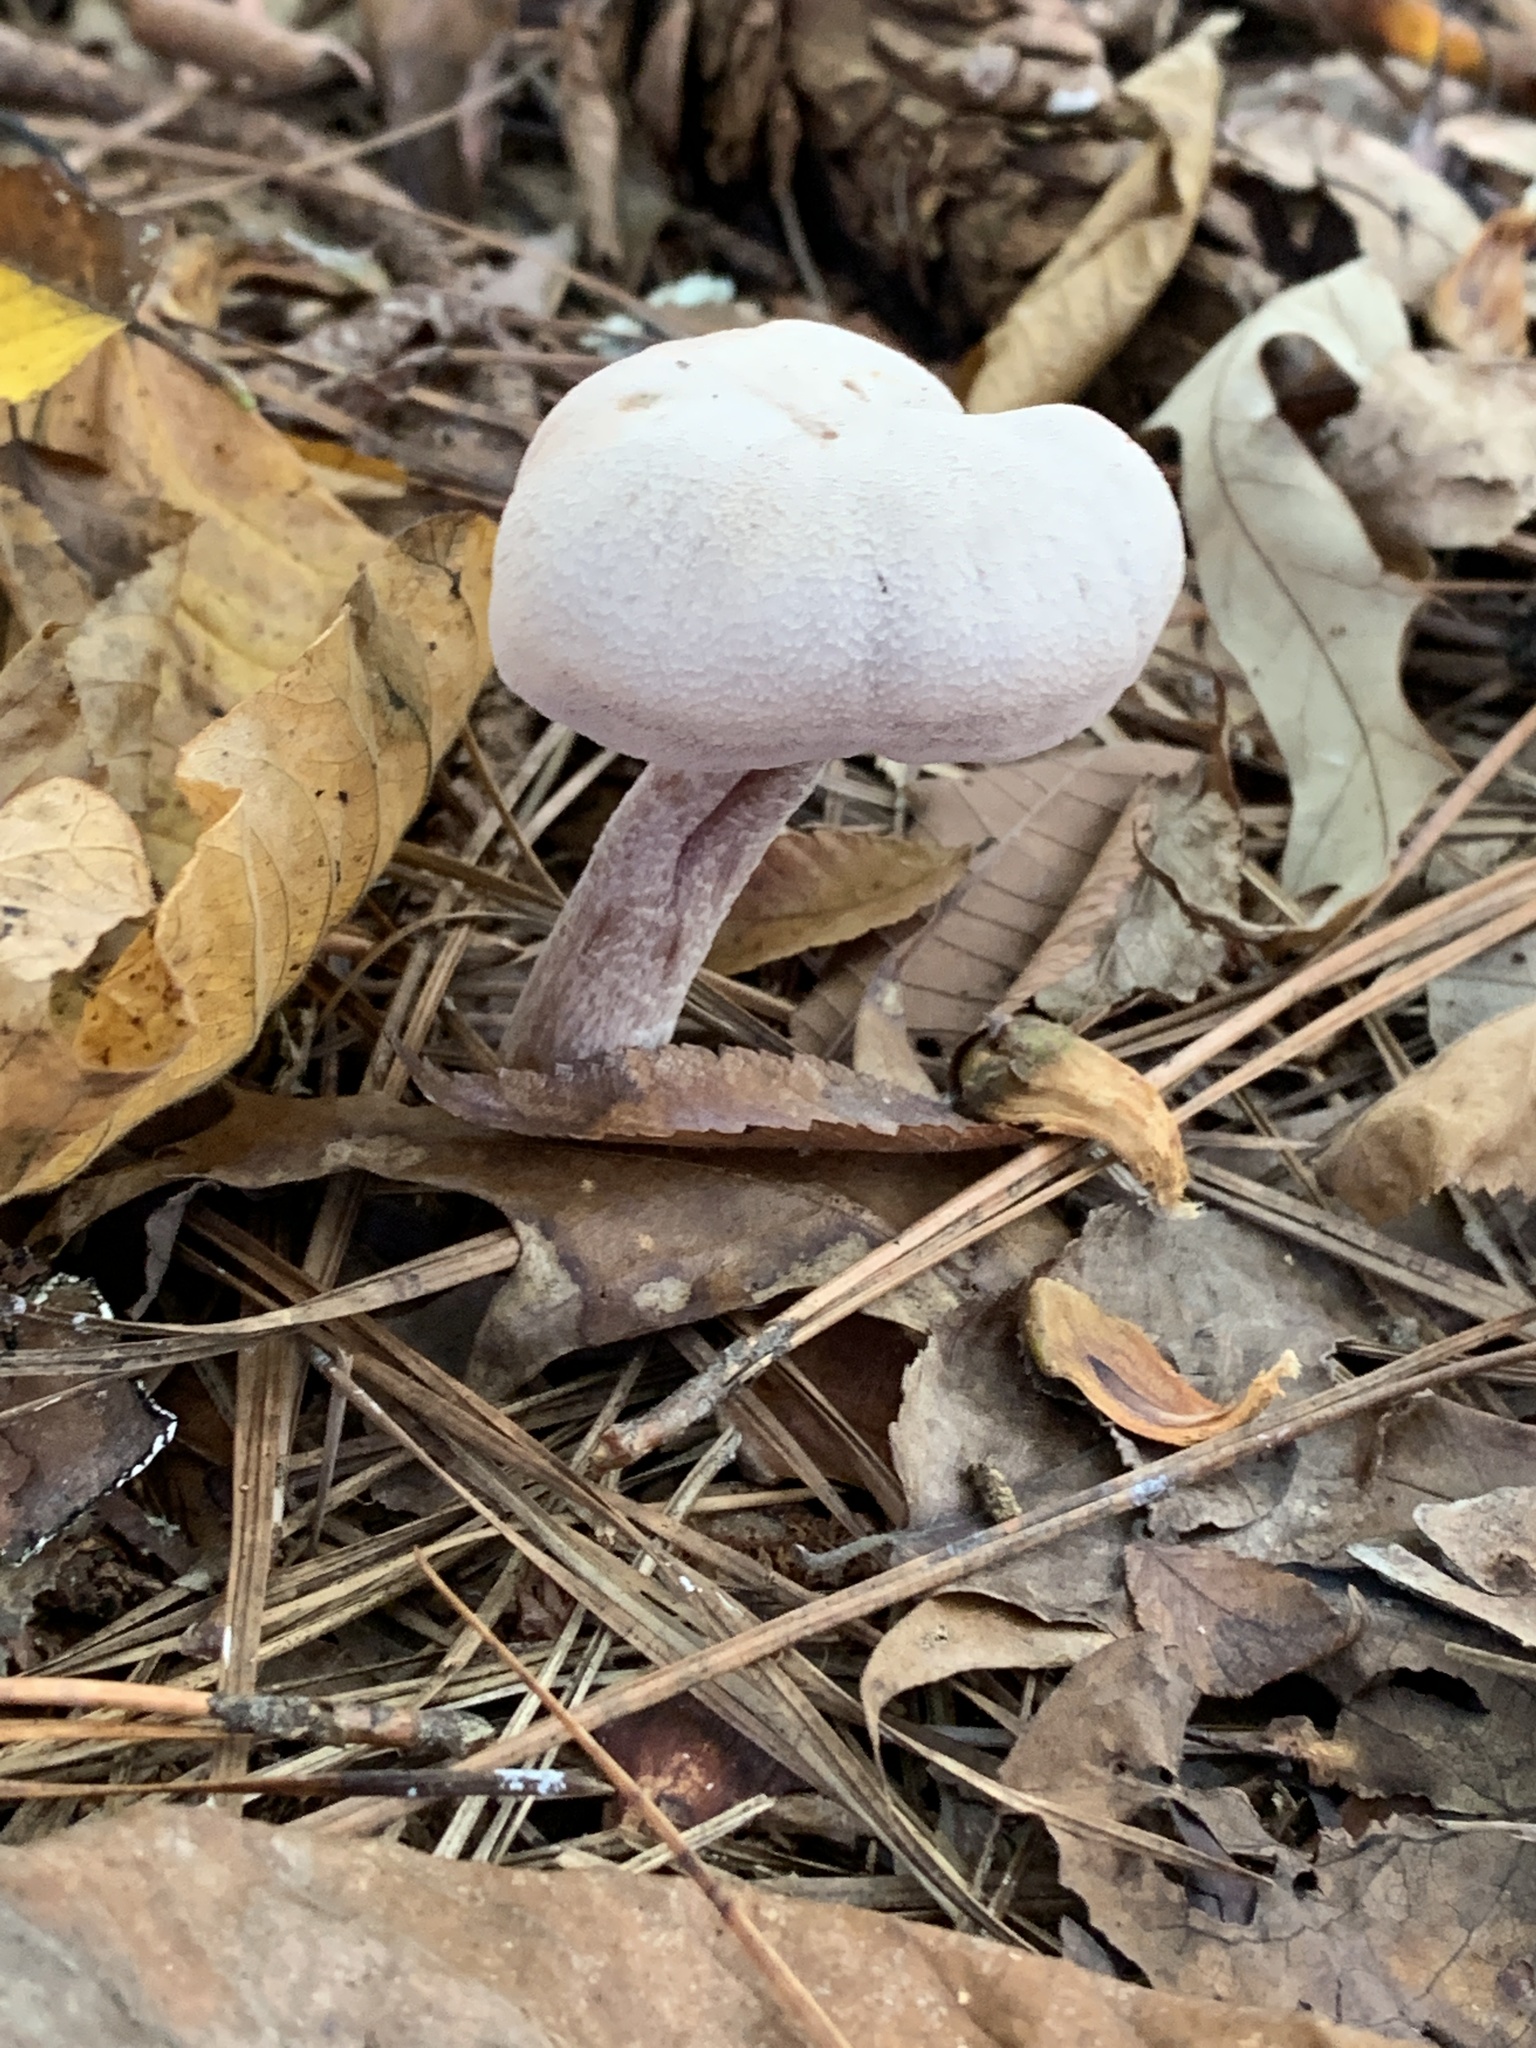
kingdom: Fungi
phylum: Basidiomycota
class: Agaricomycetes
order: Agaricales
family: Hydnangiaceae
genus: Laccaria
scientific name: Laccaria ochropurpurea
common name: Purple laccaria
